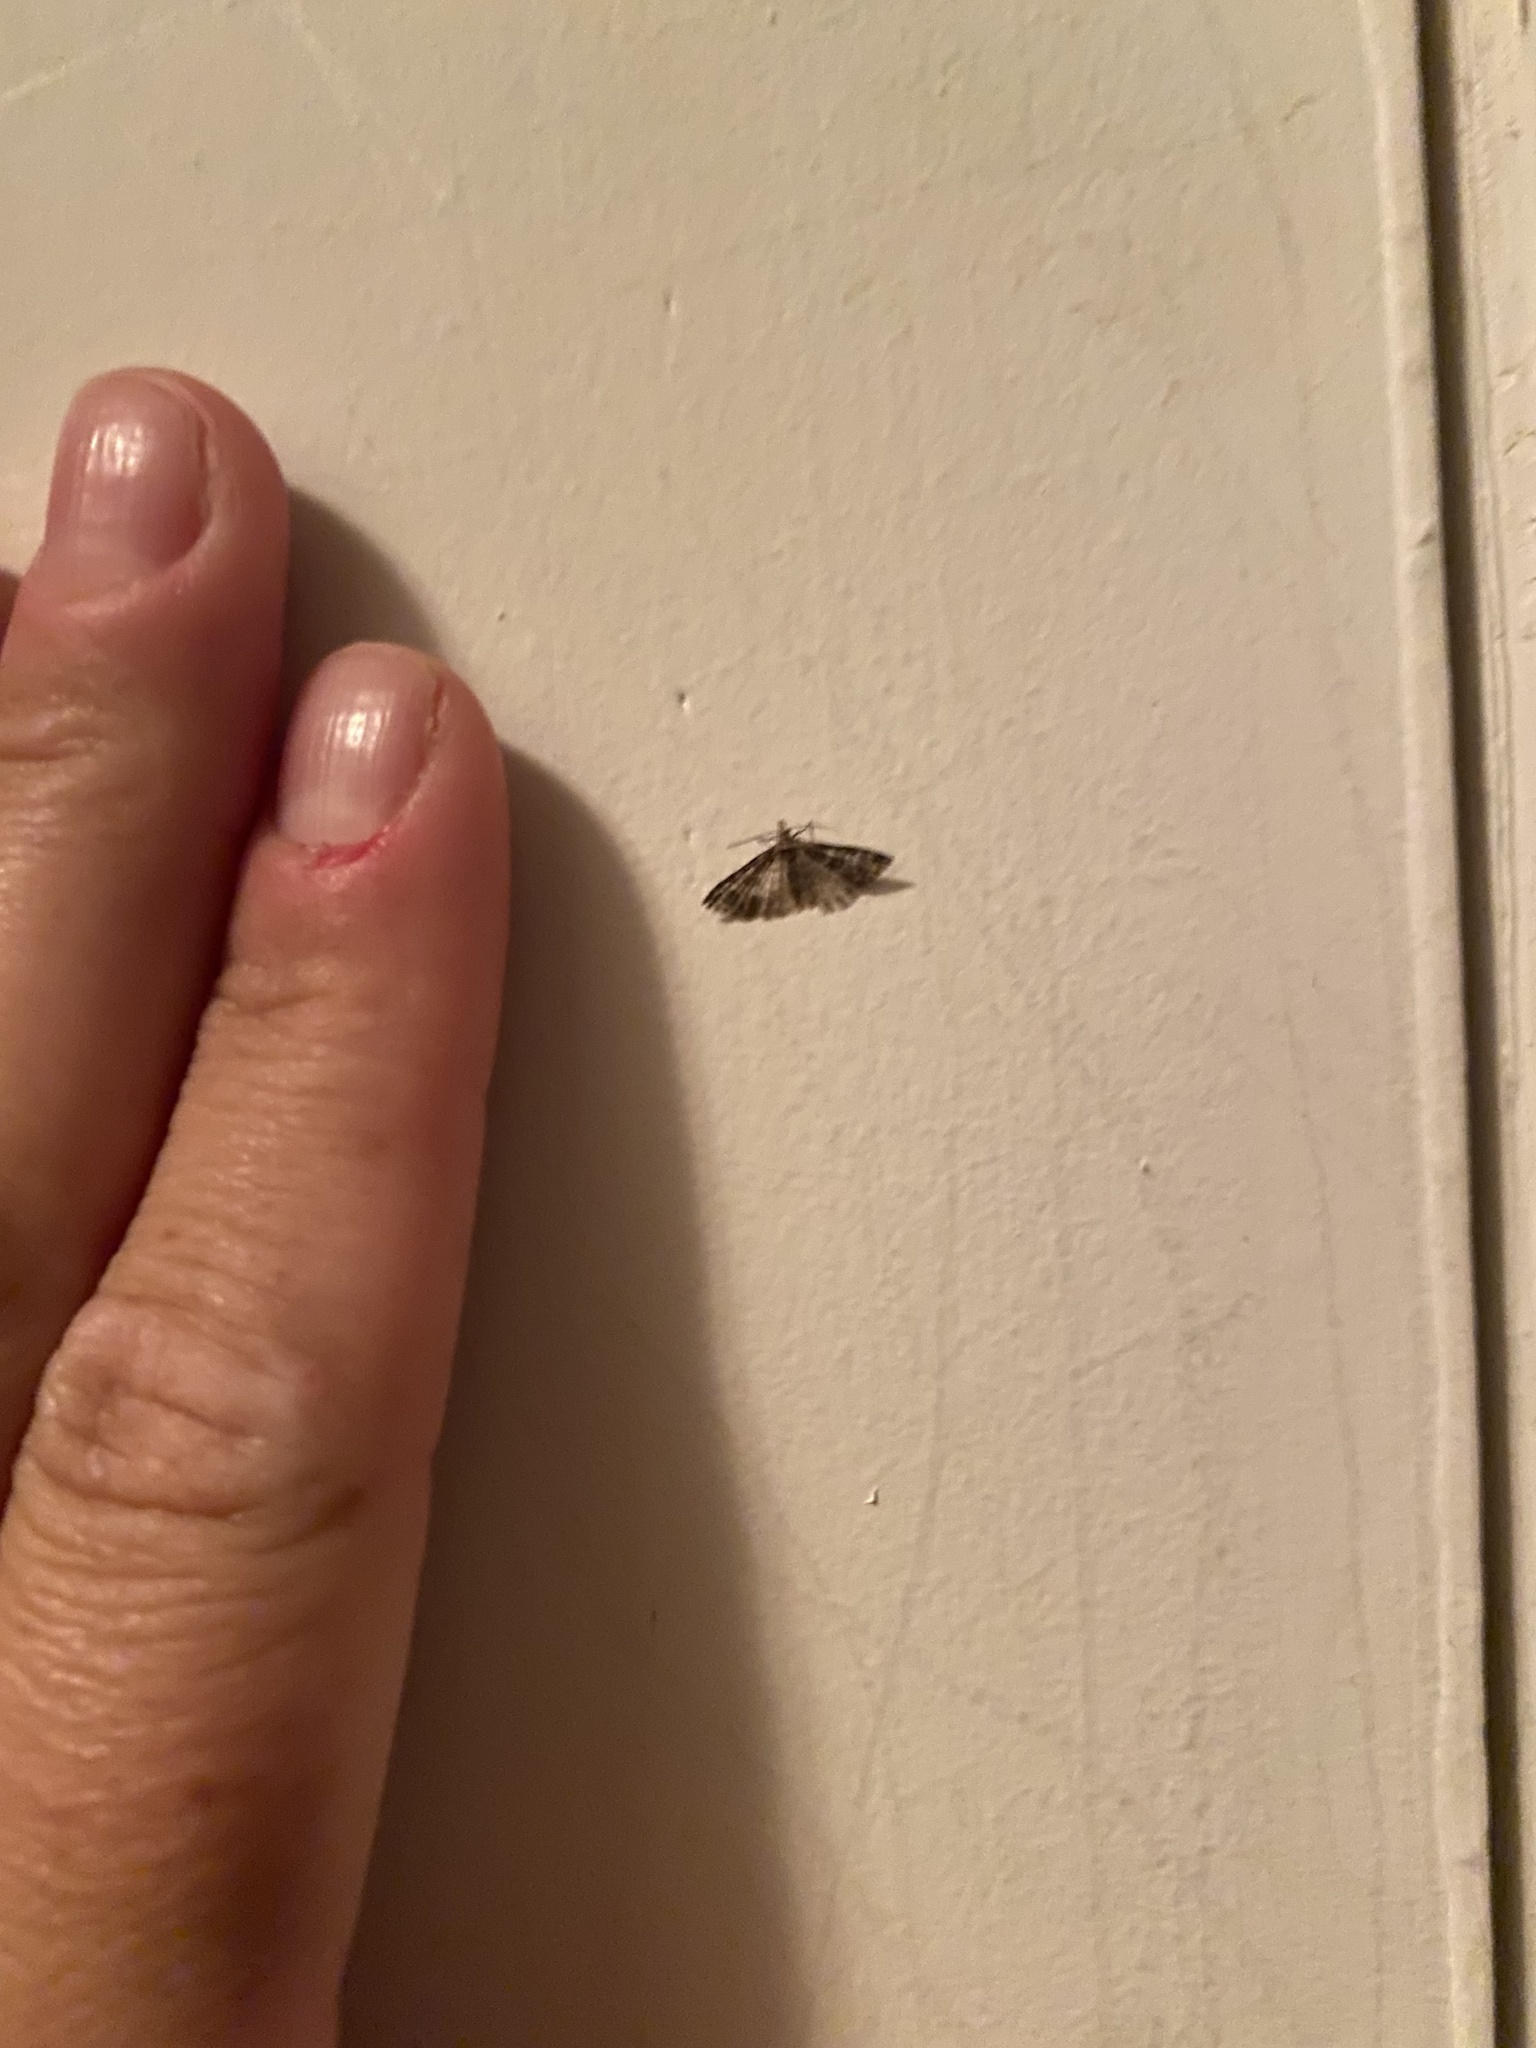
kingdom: Animalia
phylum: Arthropoda
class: Insecta
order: Lepidoptera
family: Alucitidae
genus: Alucita
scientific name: Alucita montana
